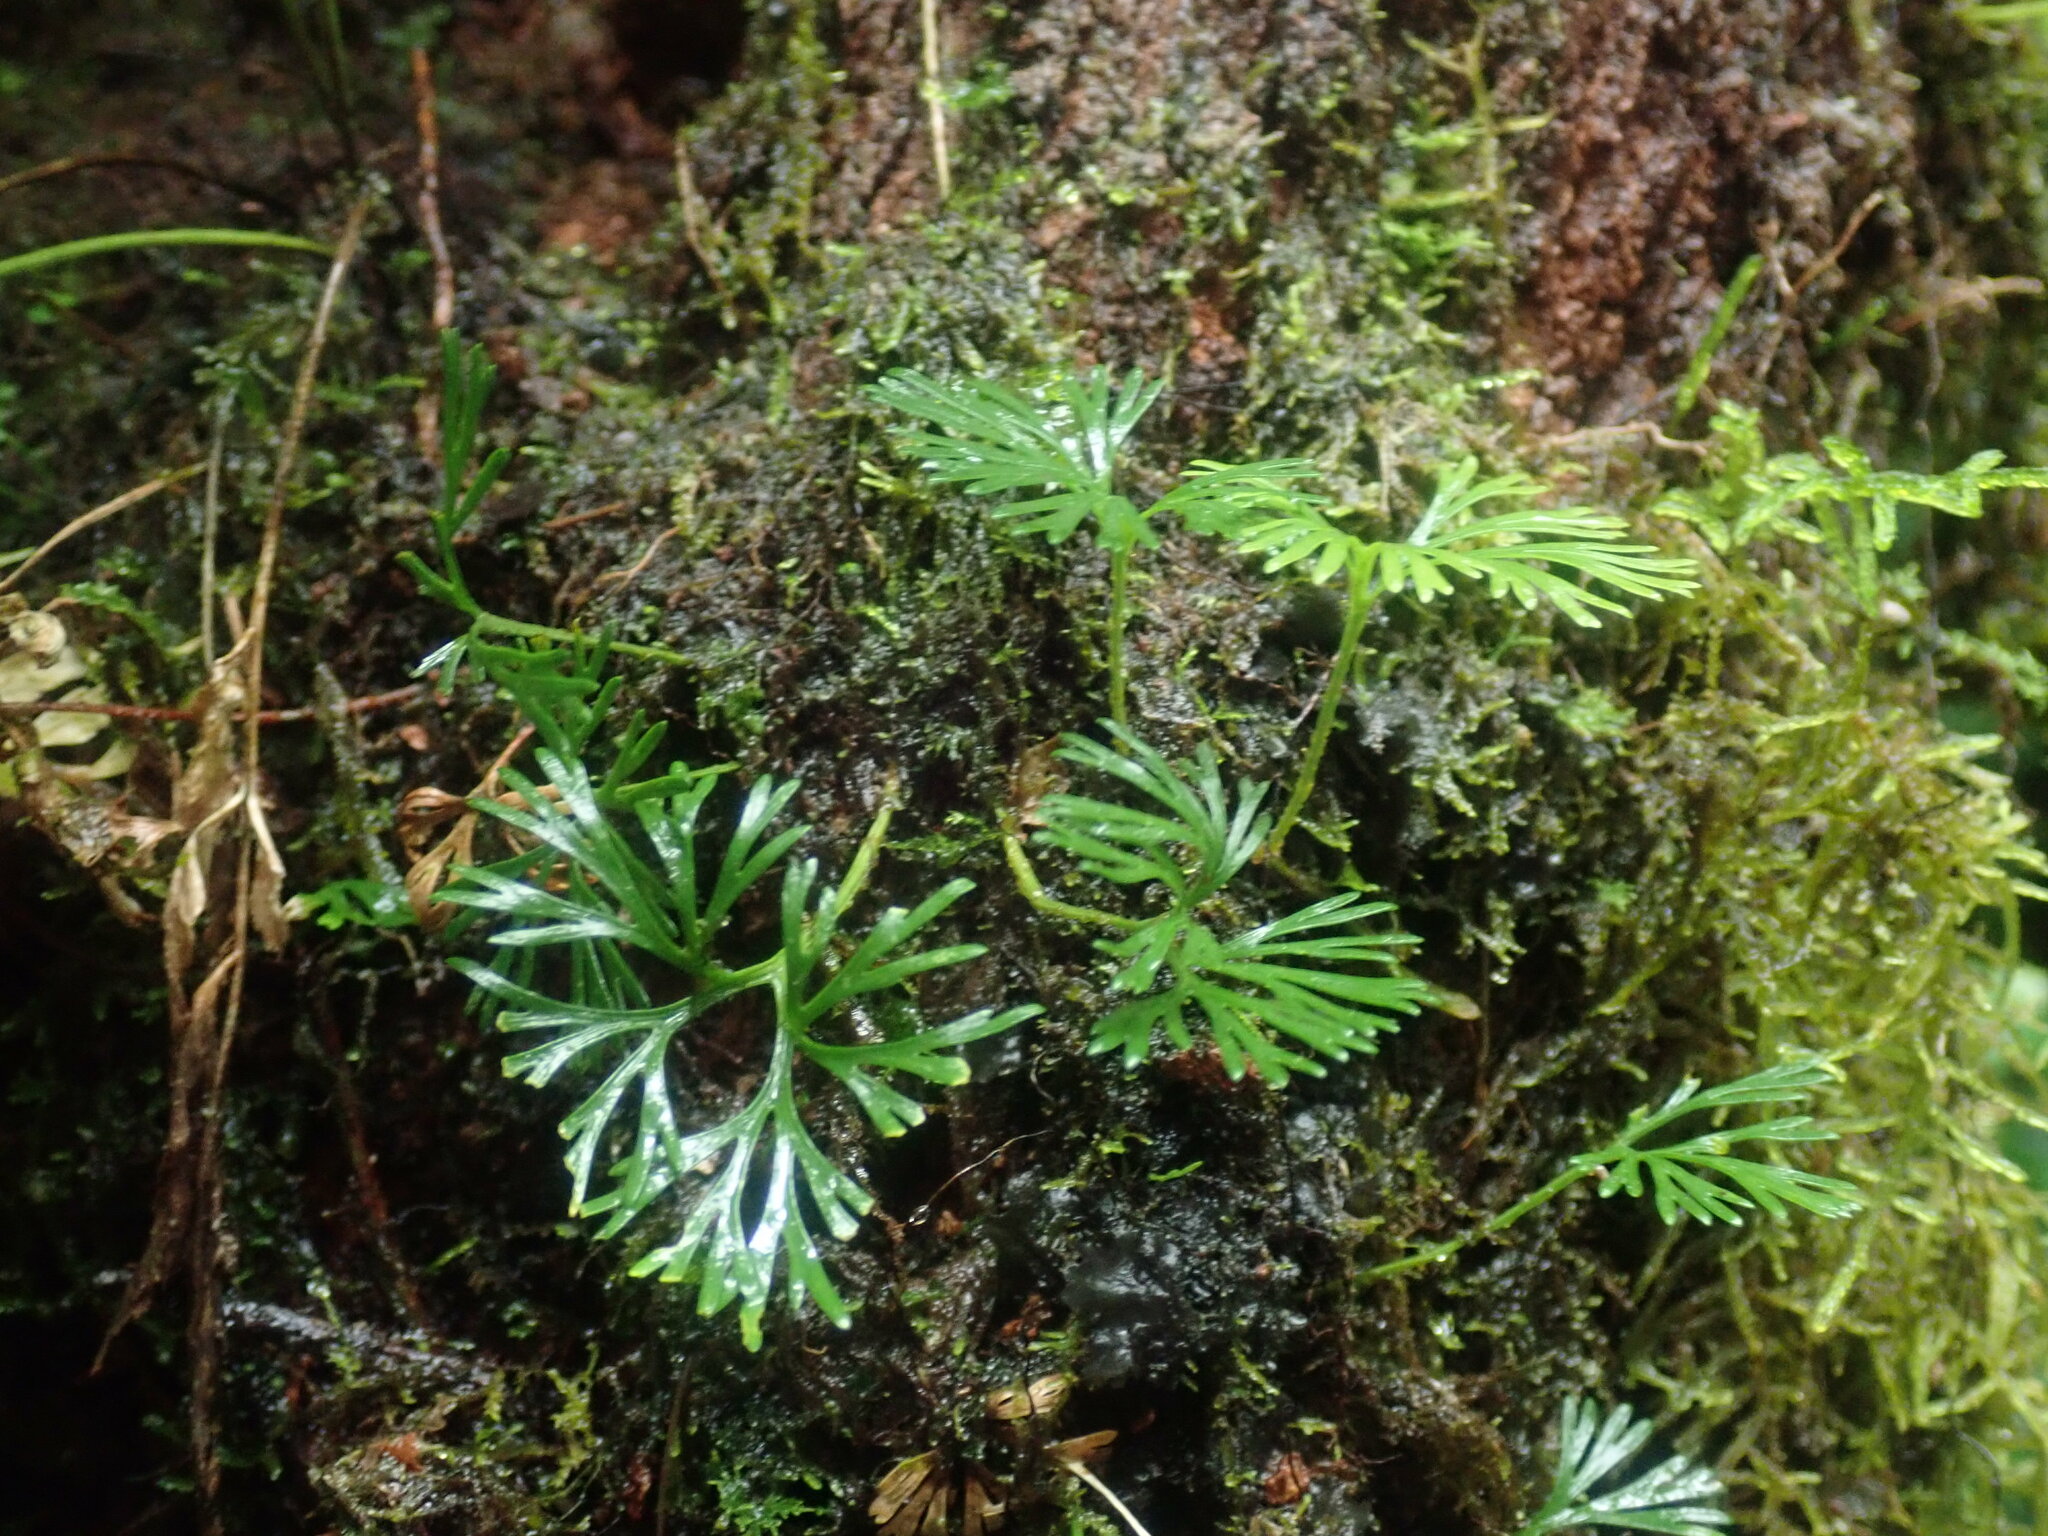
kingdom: Plantae
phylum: Tracheophyta
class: Polypodiopsida
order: Polypodiales
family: Dryopteridaceae
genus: Elaphoglossum
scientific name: Elaphoglossum peltatum
